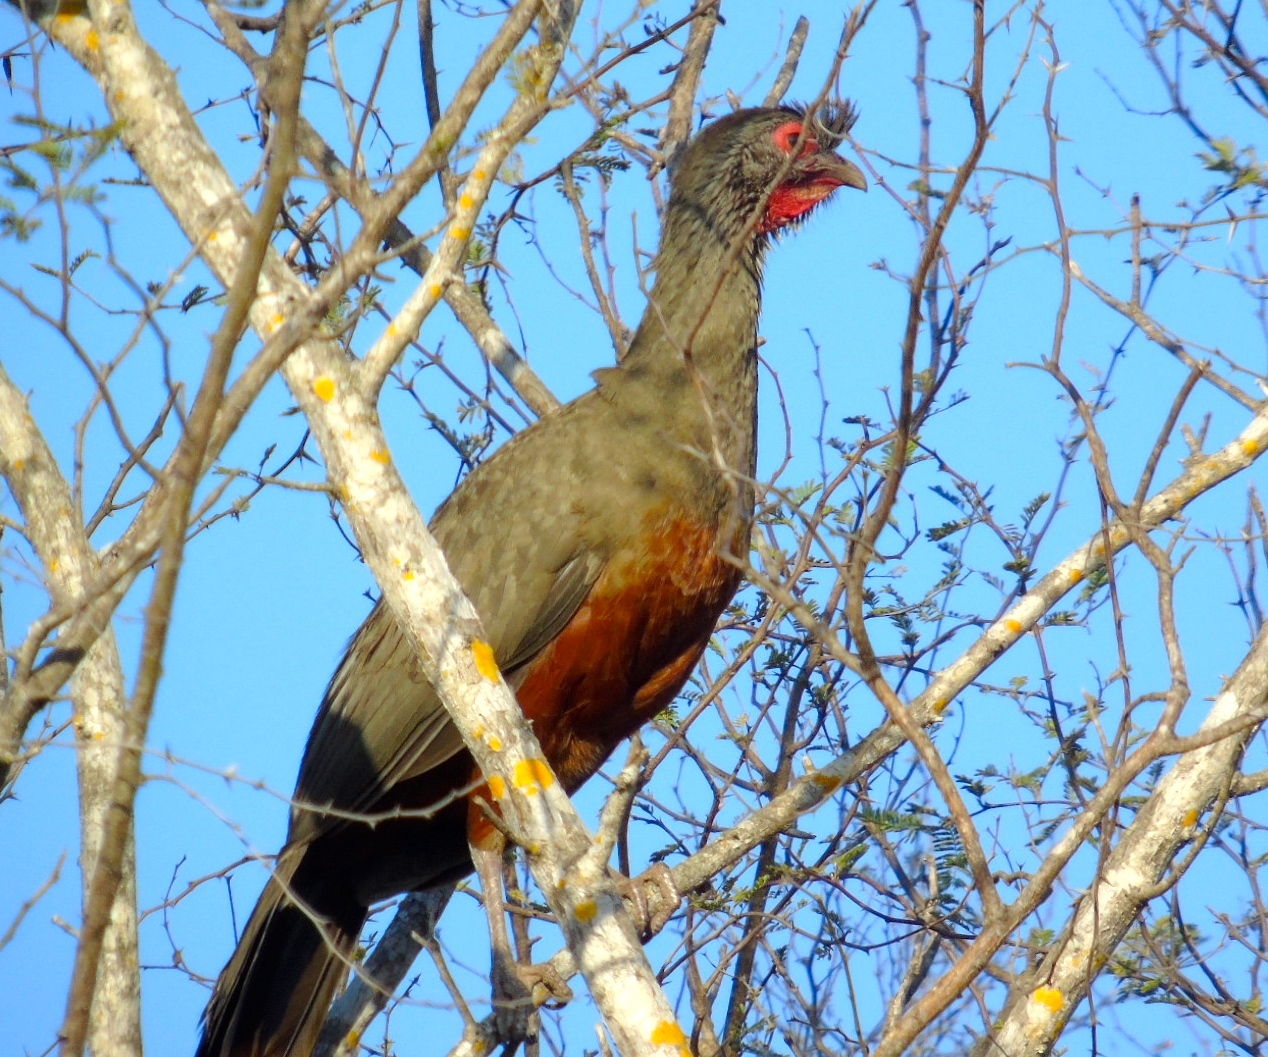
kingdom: Animalia
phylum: Chordata
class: Aves
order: Galliformes
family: Cracidae
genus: Ortalis
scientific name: Ortalis wagleri
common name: Rufous-bellied chachalaca
